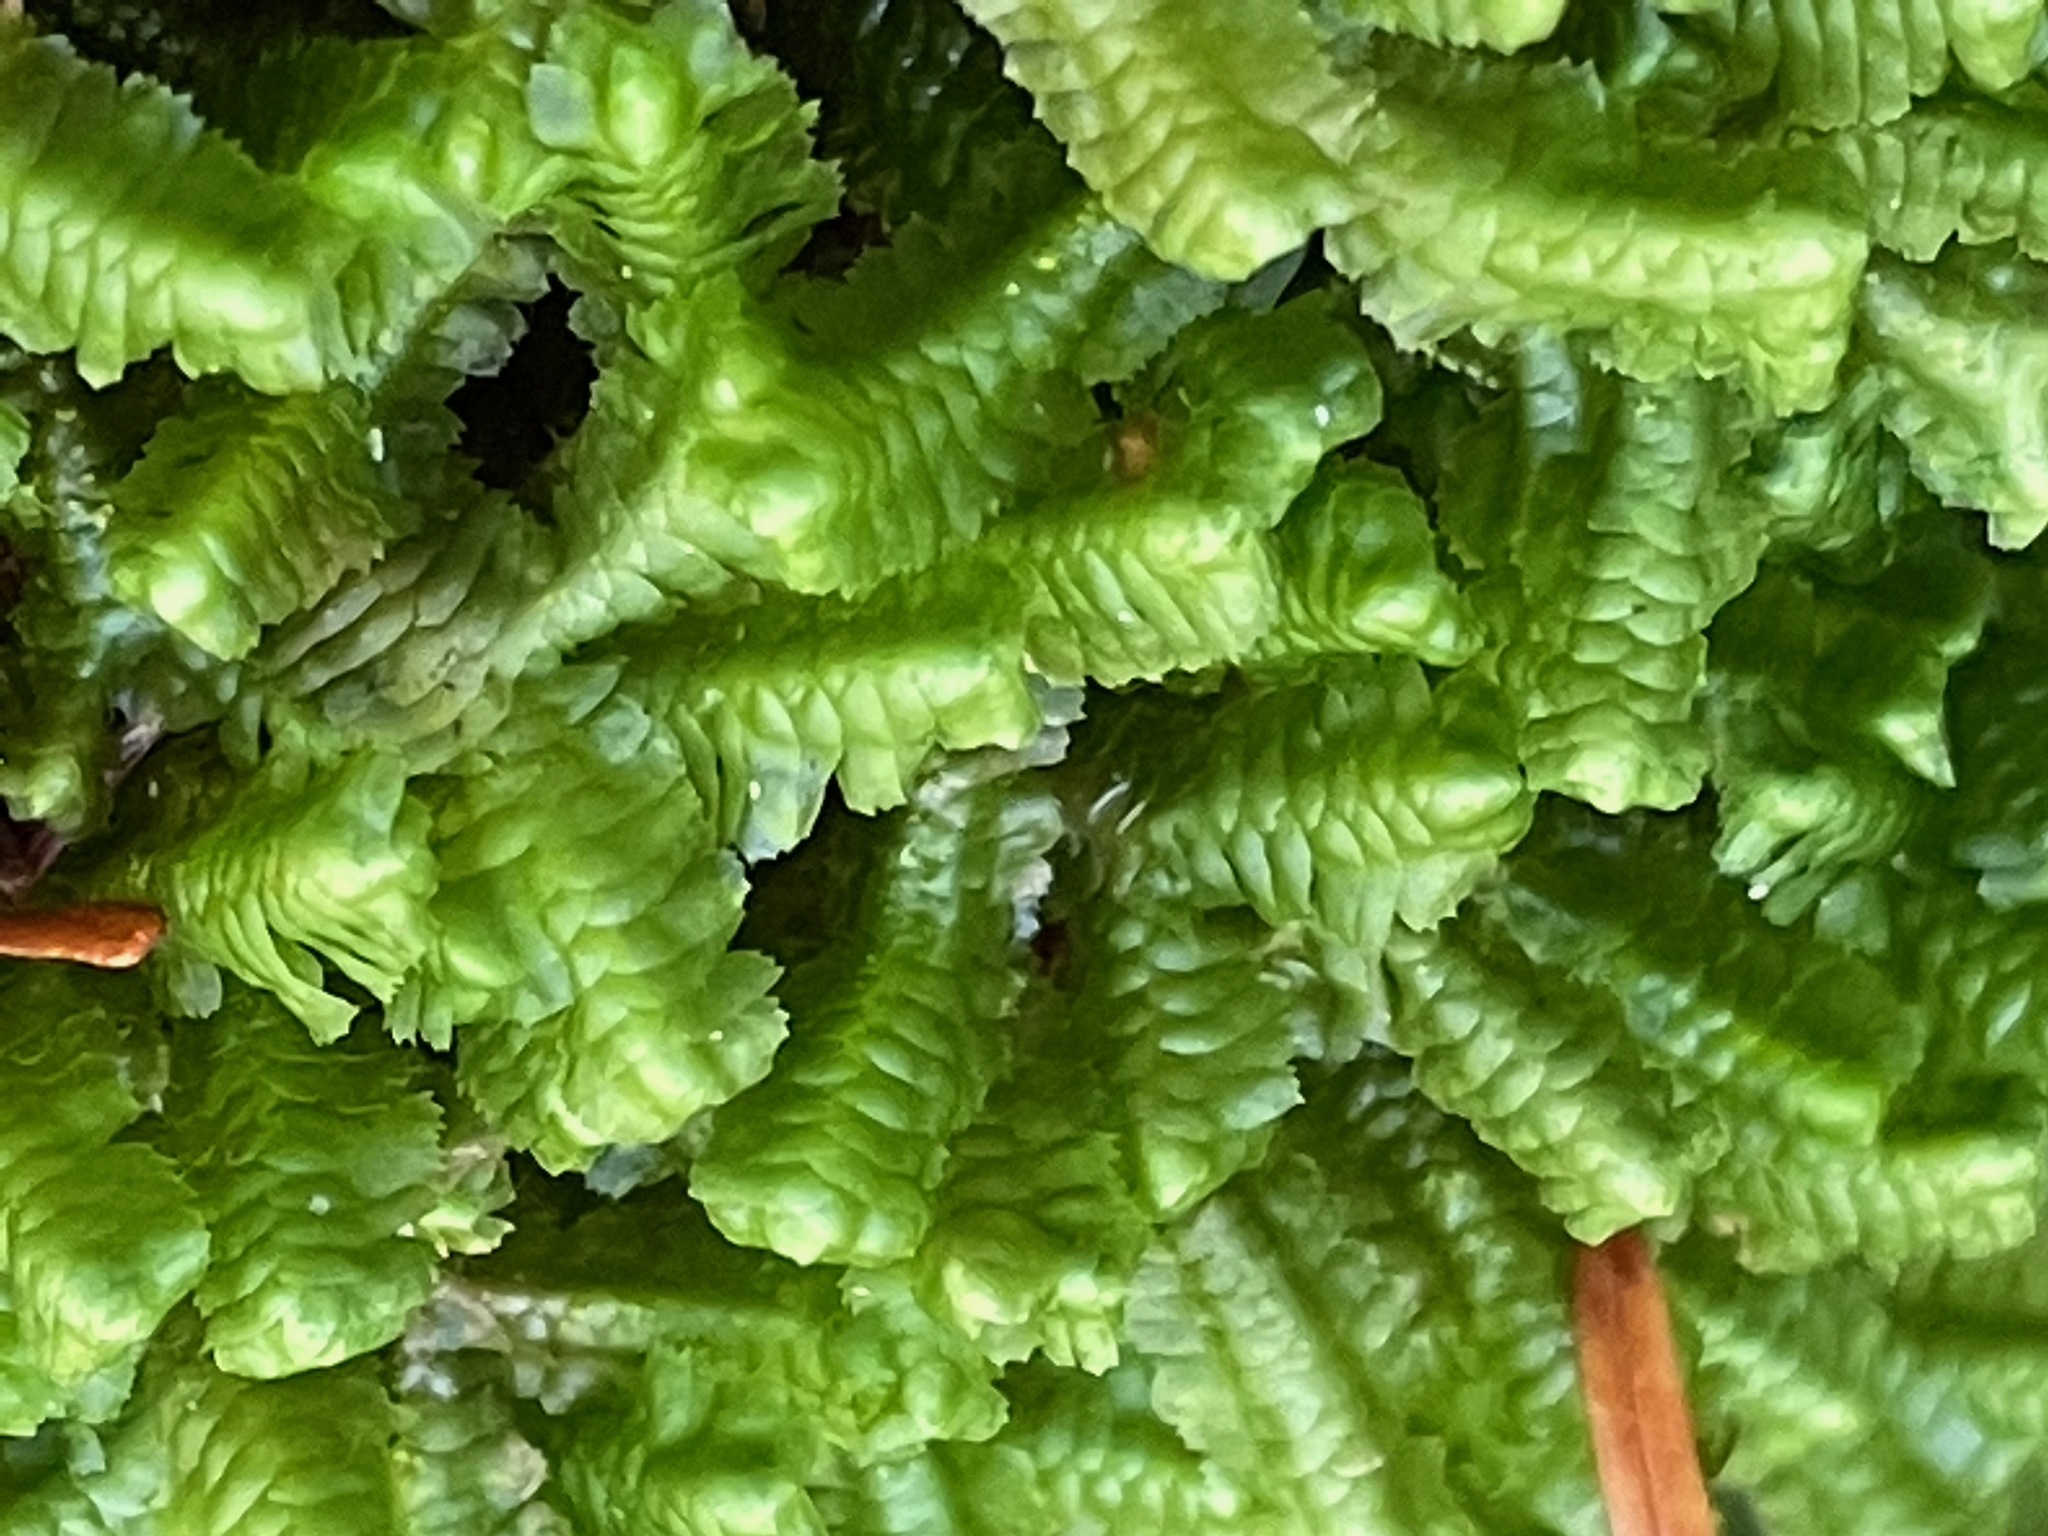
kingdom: Plantae
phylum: Marchantiophyta
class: Jungermanniopsida
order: Jungermanniales
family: Lepidoziaceae
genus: Bazzania
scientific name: Bazzania trilobata
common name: Three-lobed whipwort
